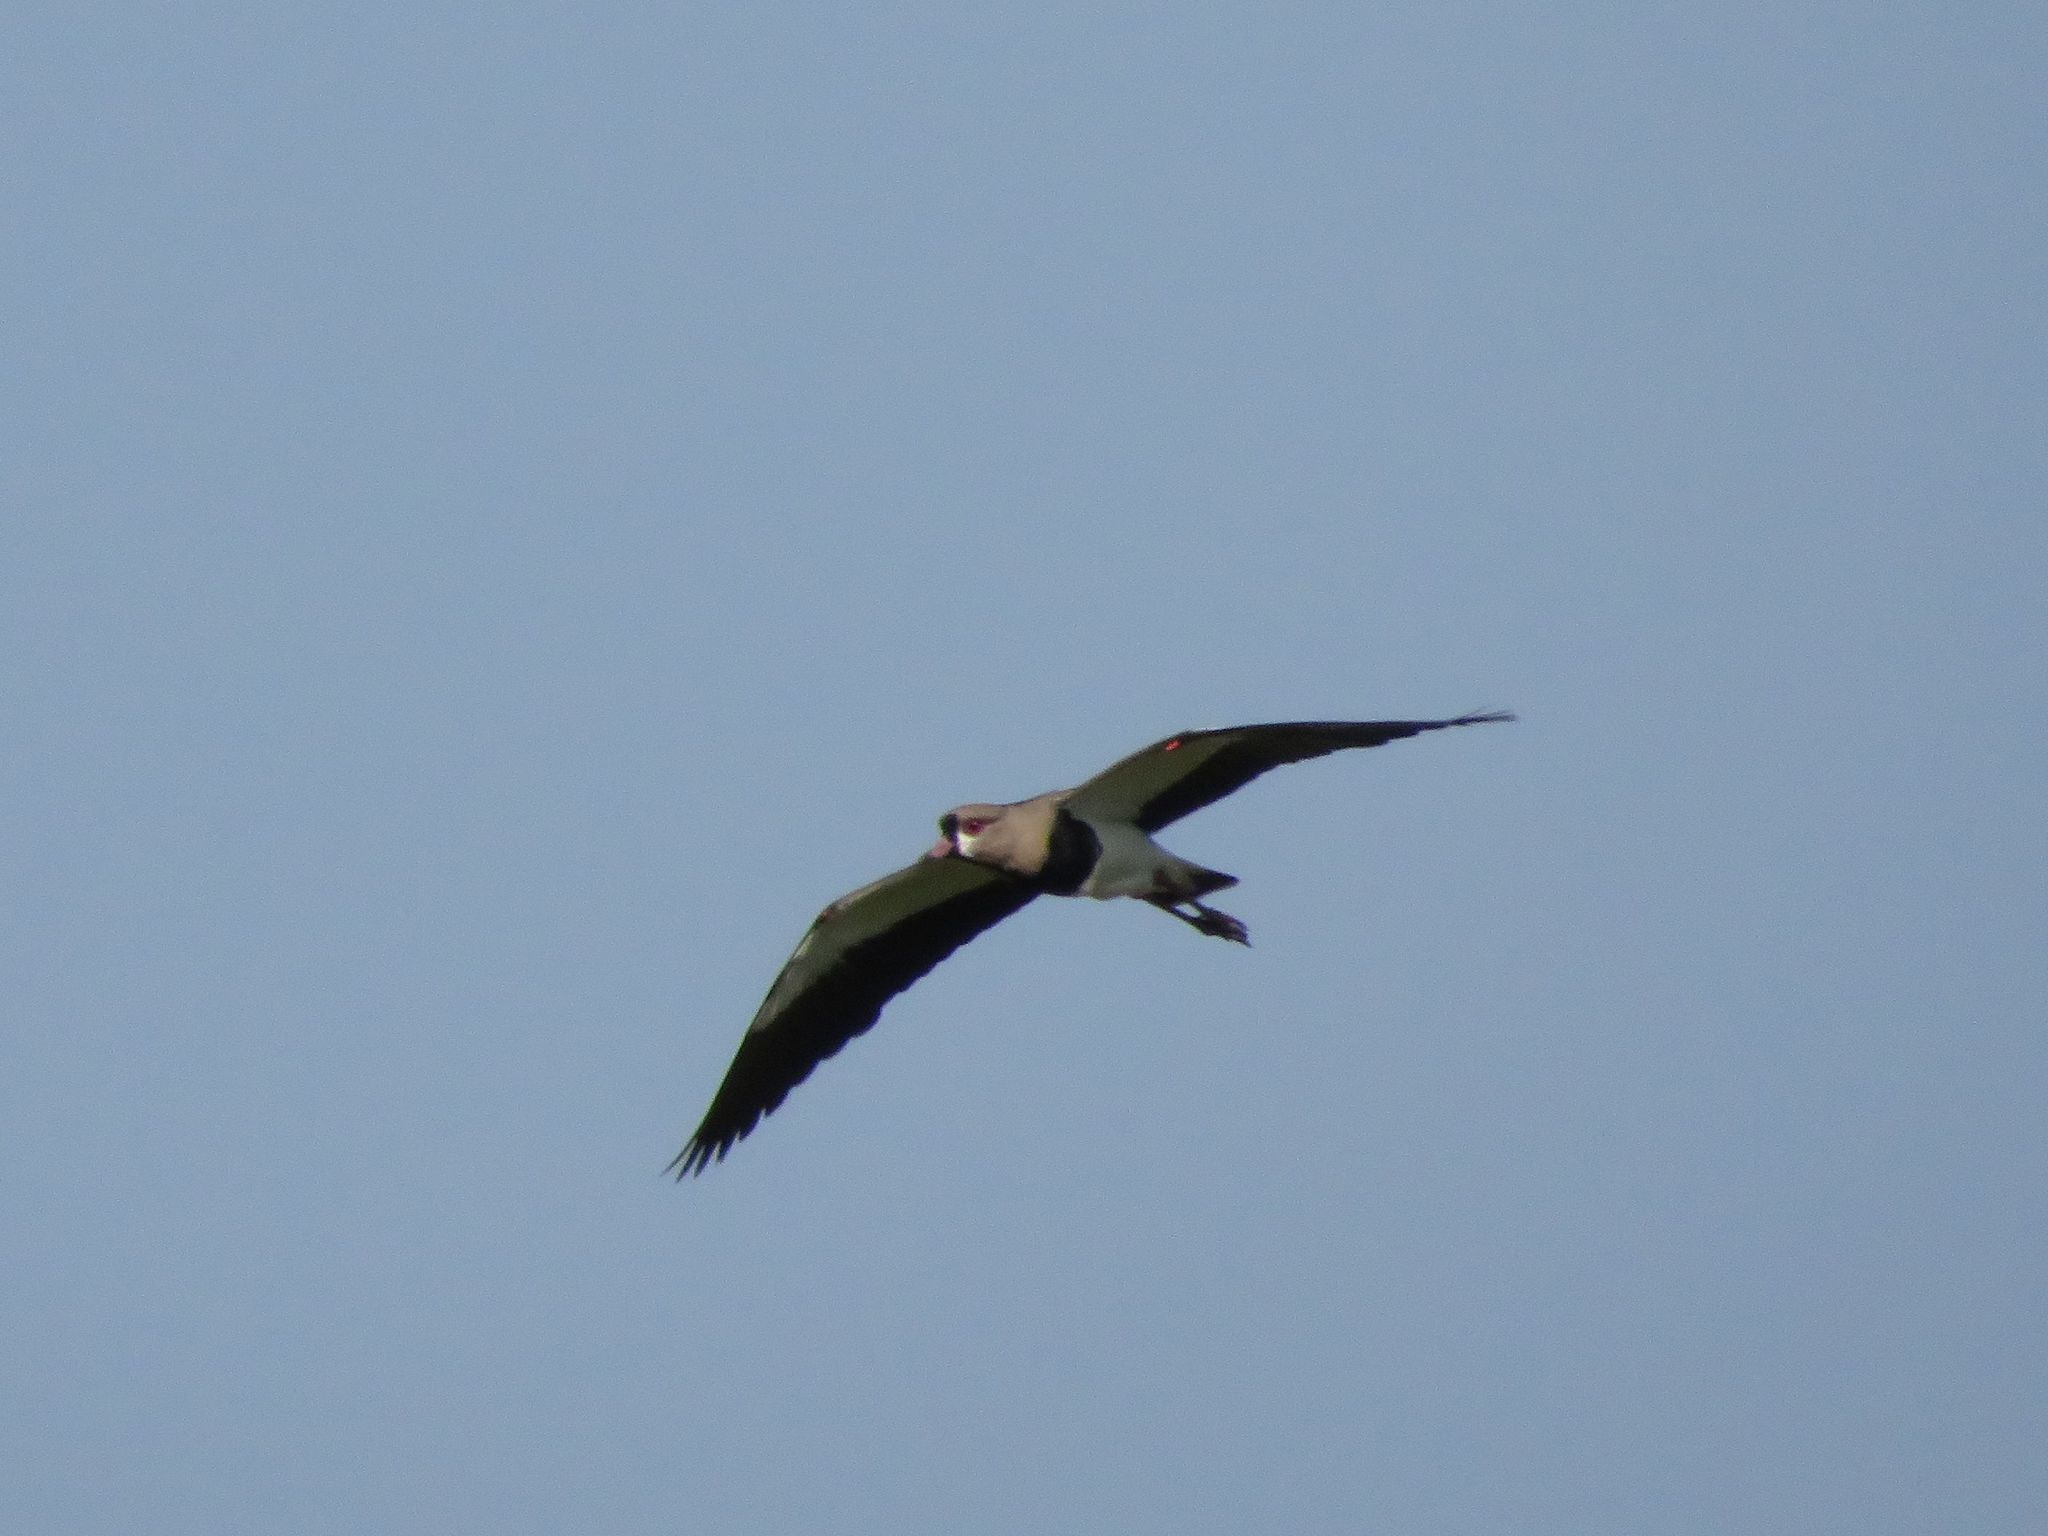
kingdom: Animalia
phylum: Chordata
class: Aves
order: Charadriiformes
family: Charadriidae
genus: Vanellus
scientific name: Vanellus chilensis
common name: Southern lapwing
